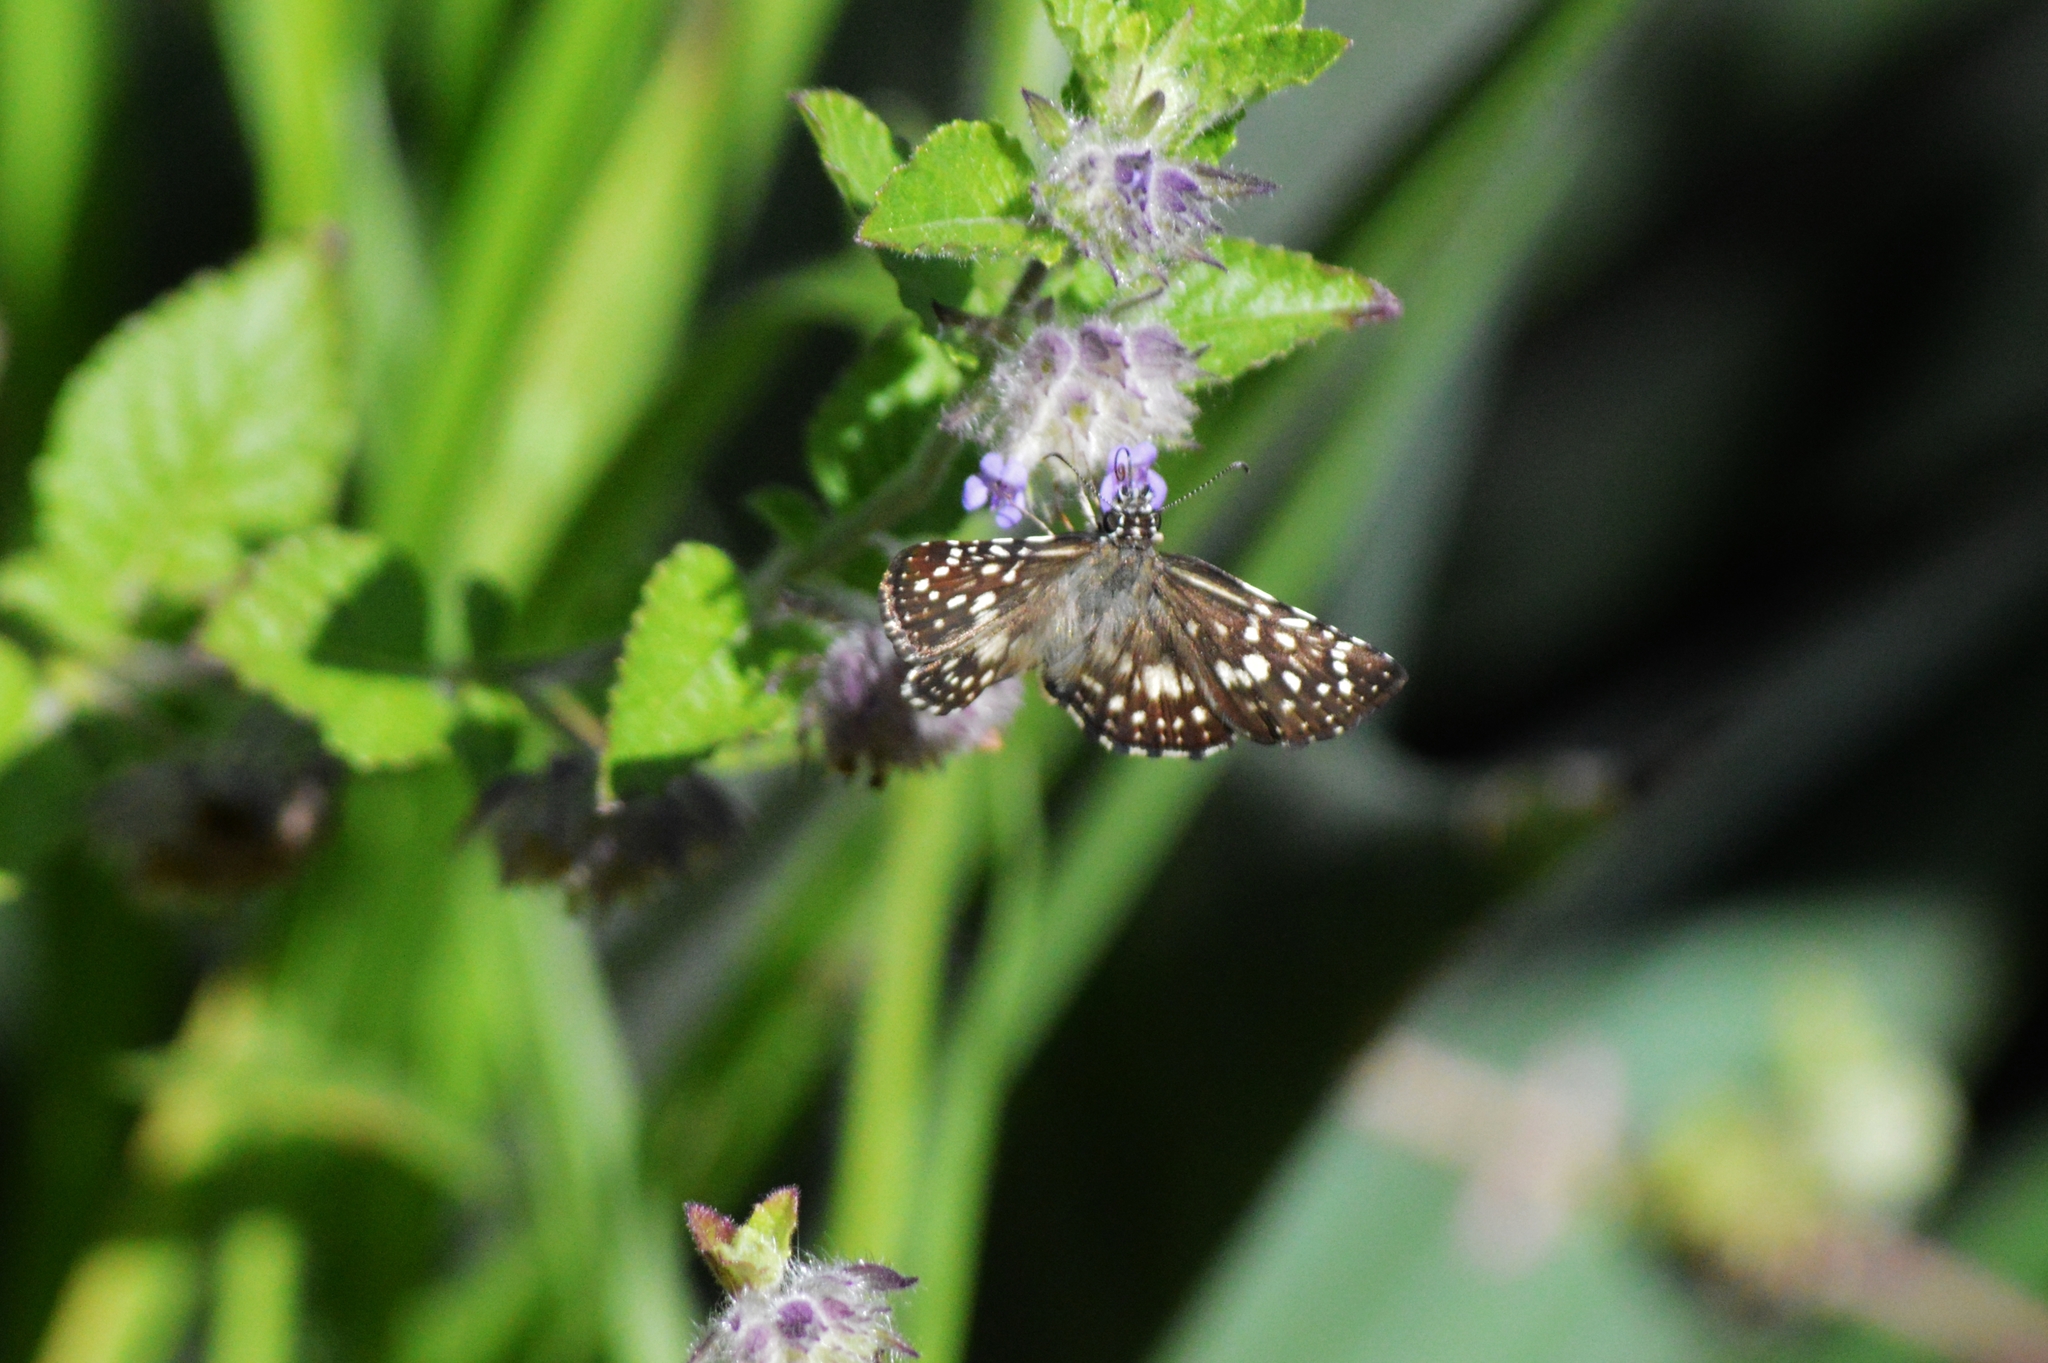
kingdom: Animalia
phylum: Arthropoda
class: Insecta
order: Lepidoptera
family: Hesperiidae
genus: Pyrgus
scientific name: Pyrgus oileus
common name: Tropical checkered-skipper
